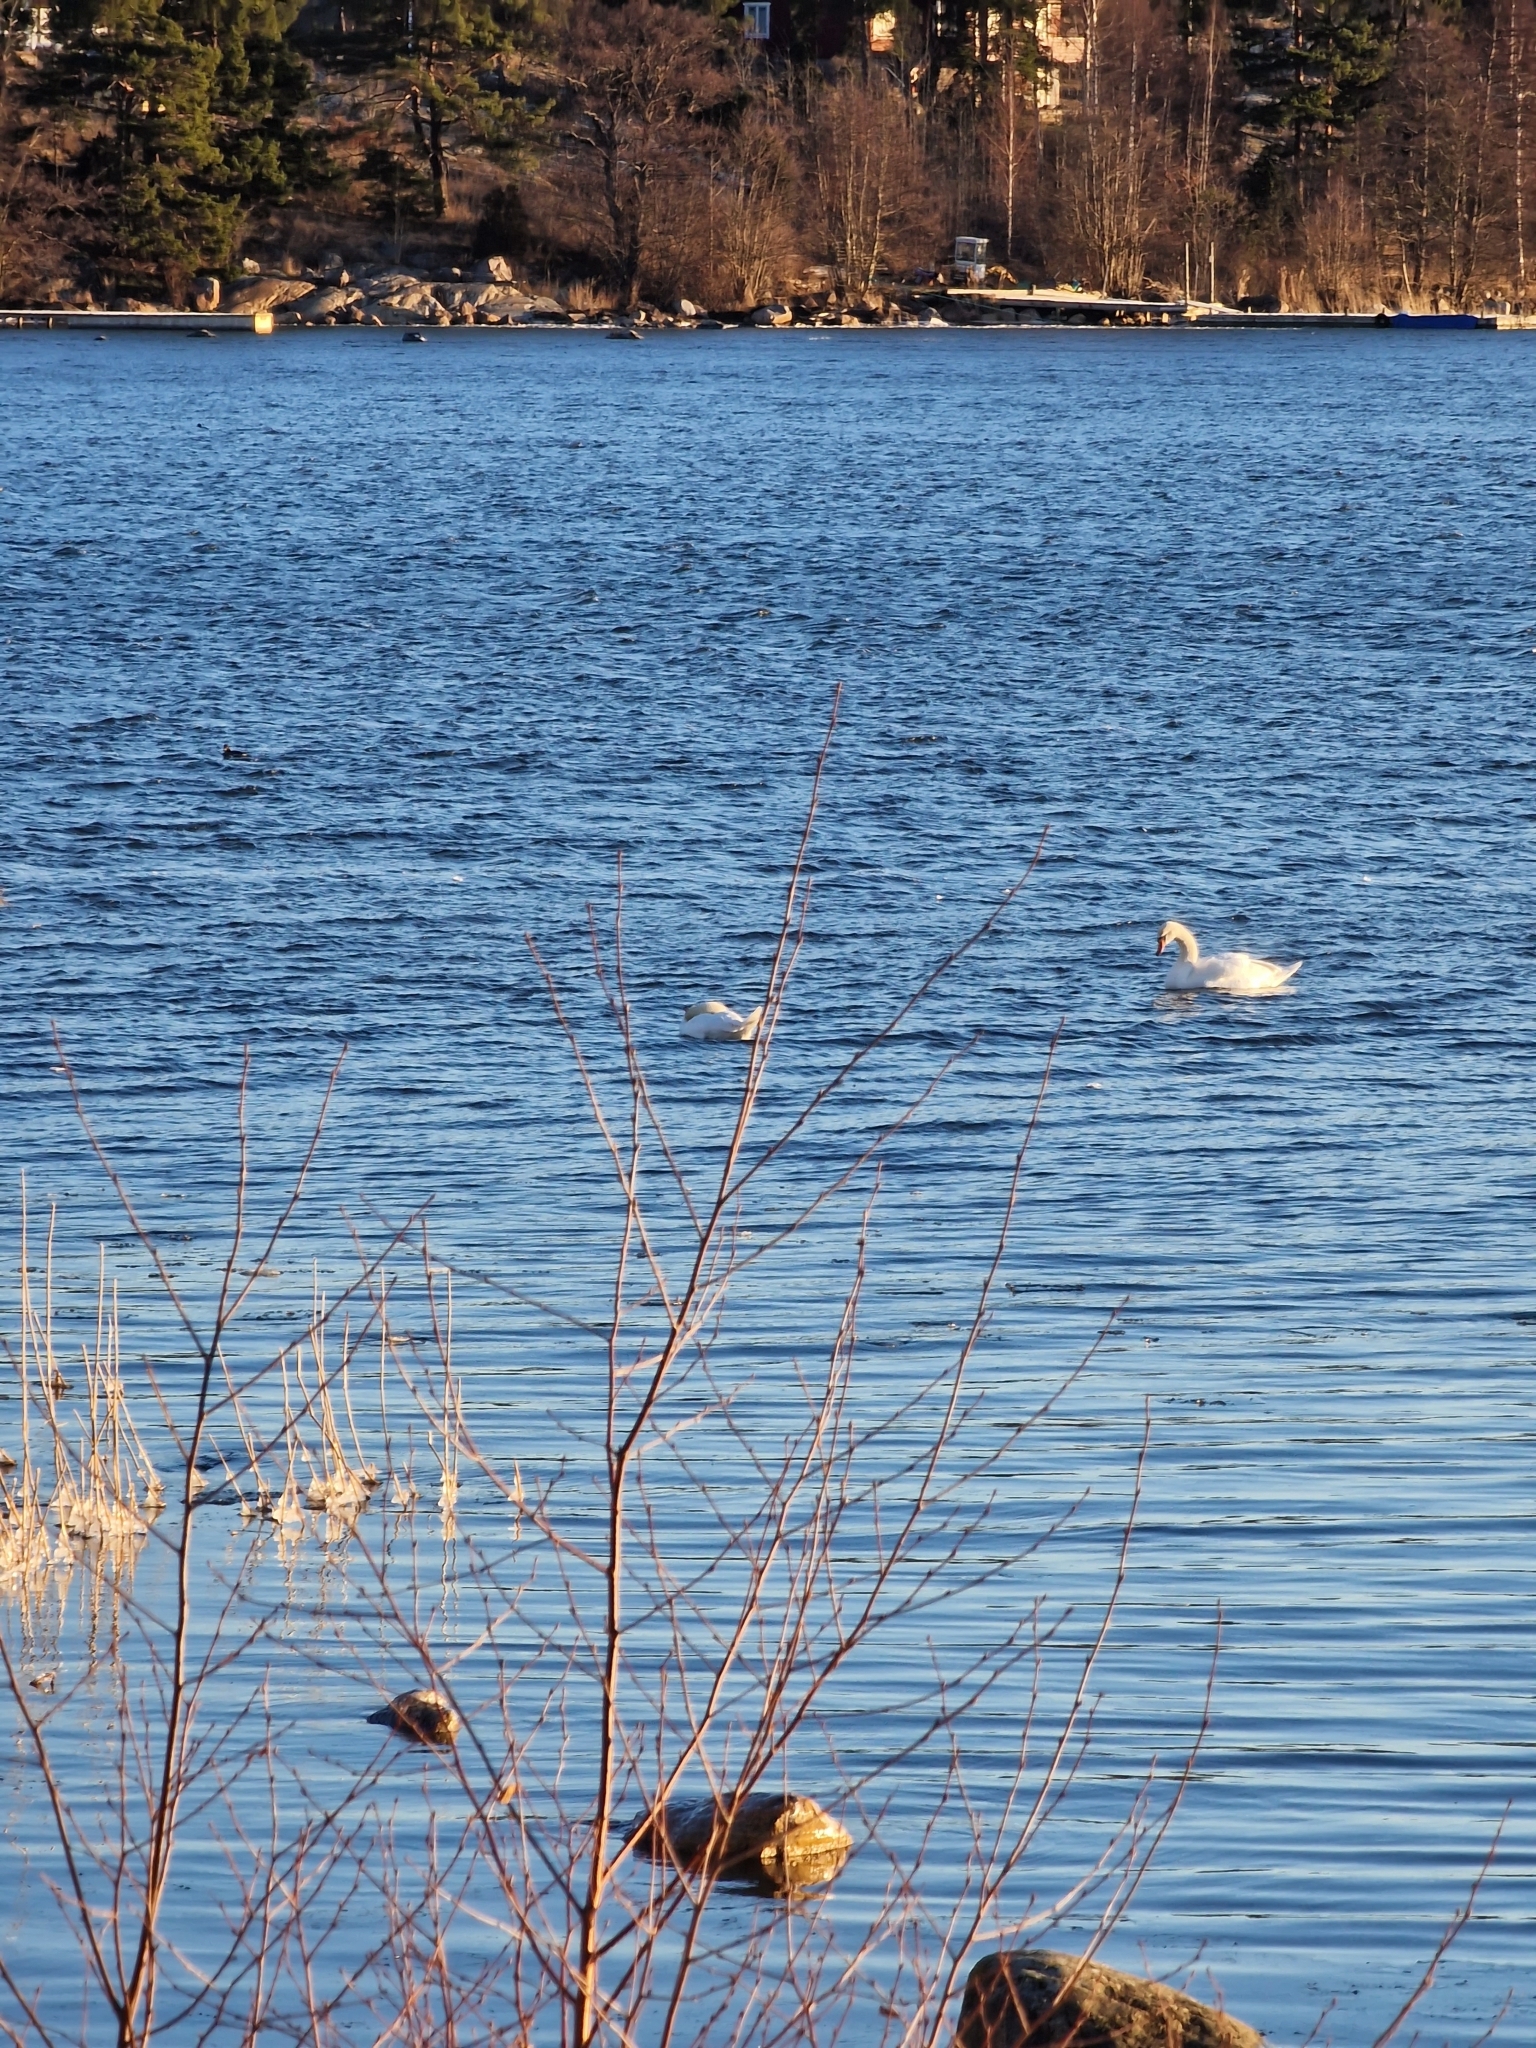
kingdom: Animalia
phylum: Chordata
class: Aves
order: Anseriformes
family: Anatidae
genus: Cygnus
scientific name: Cygnus olor
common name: Mute swan
